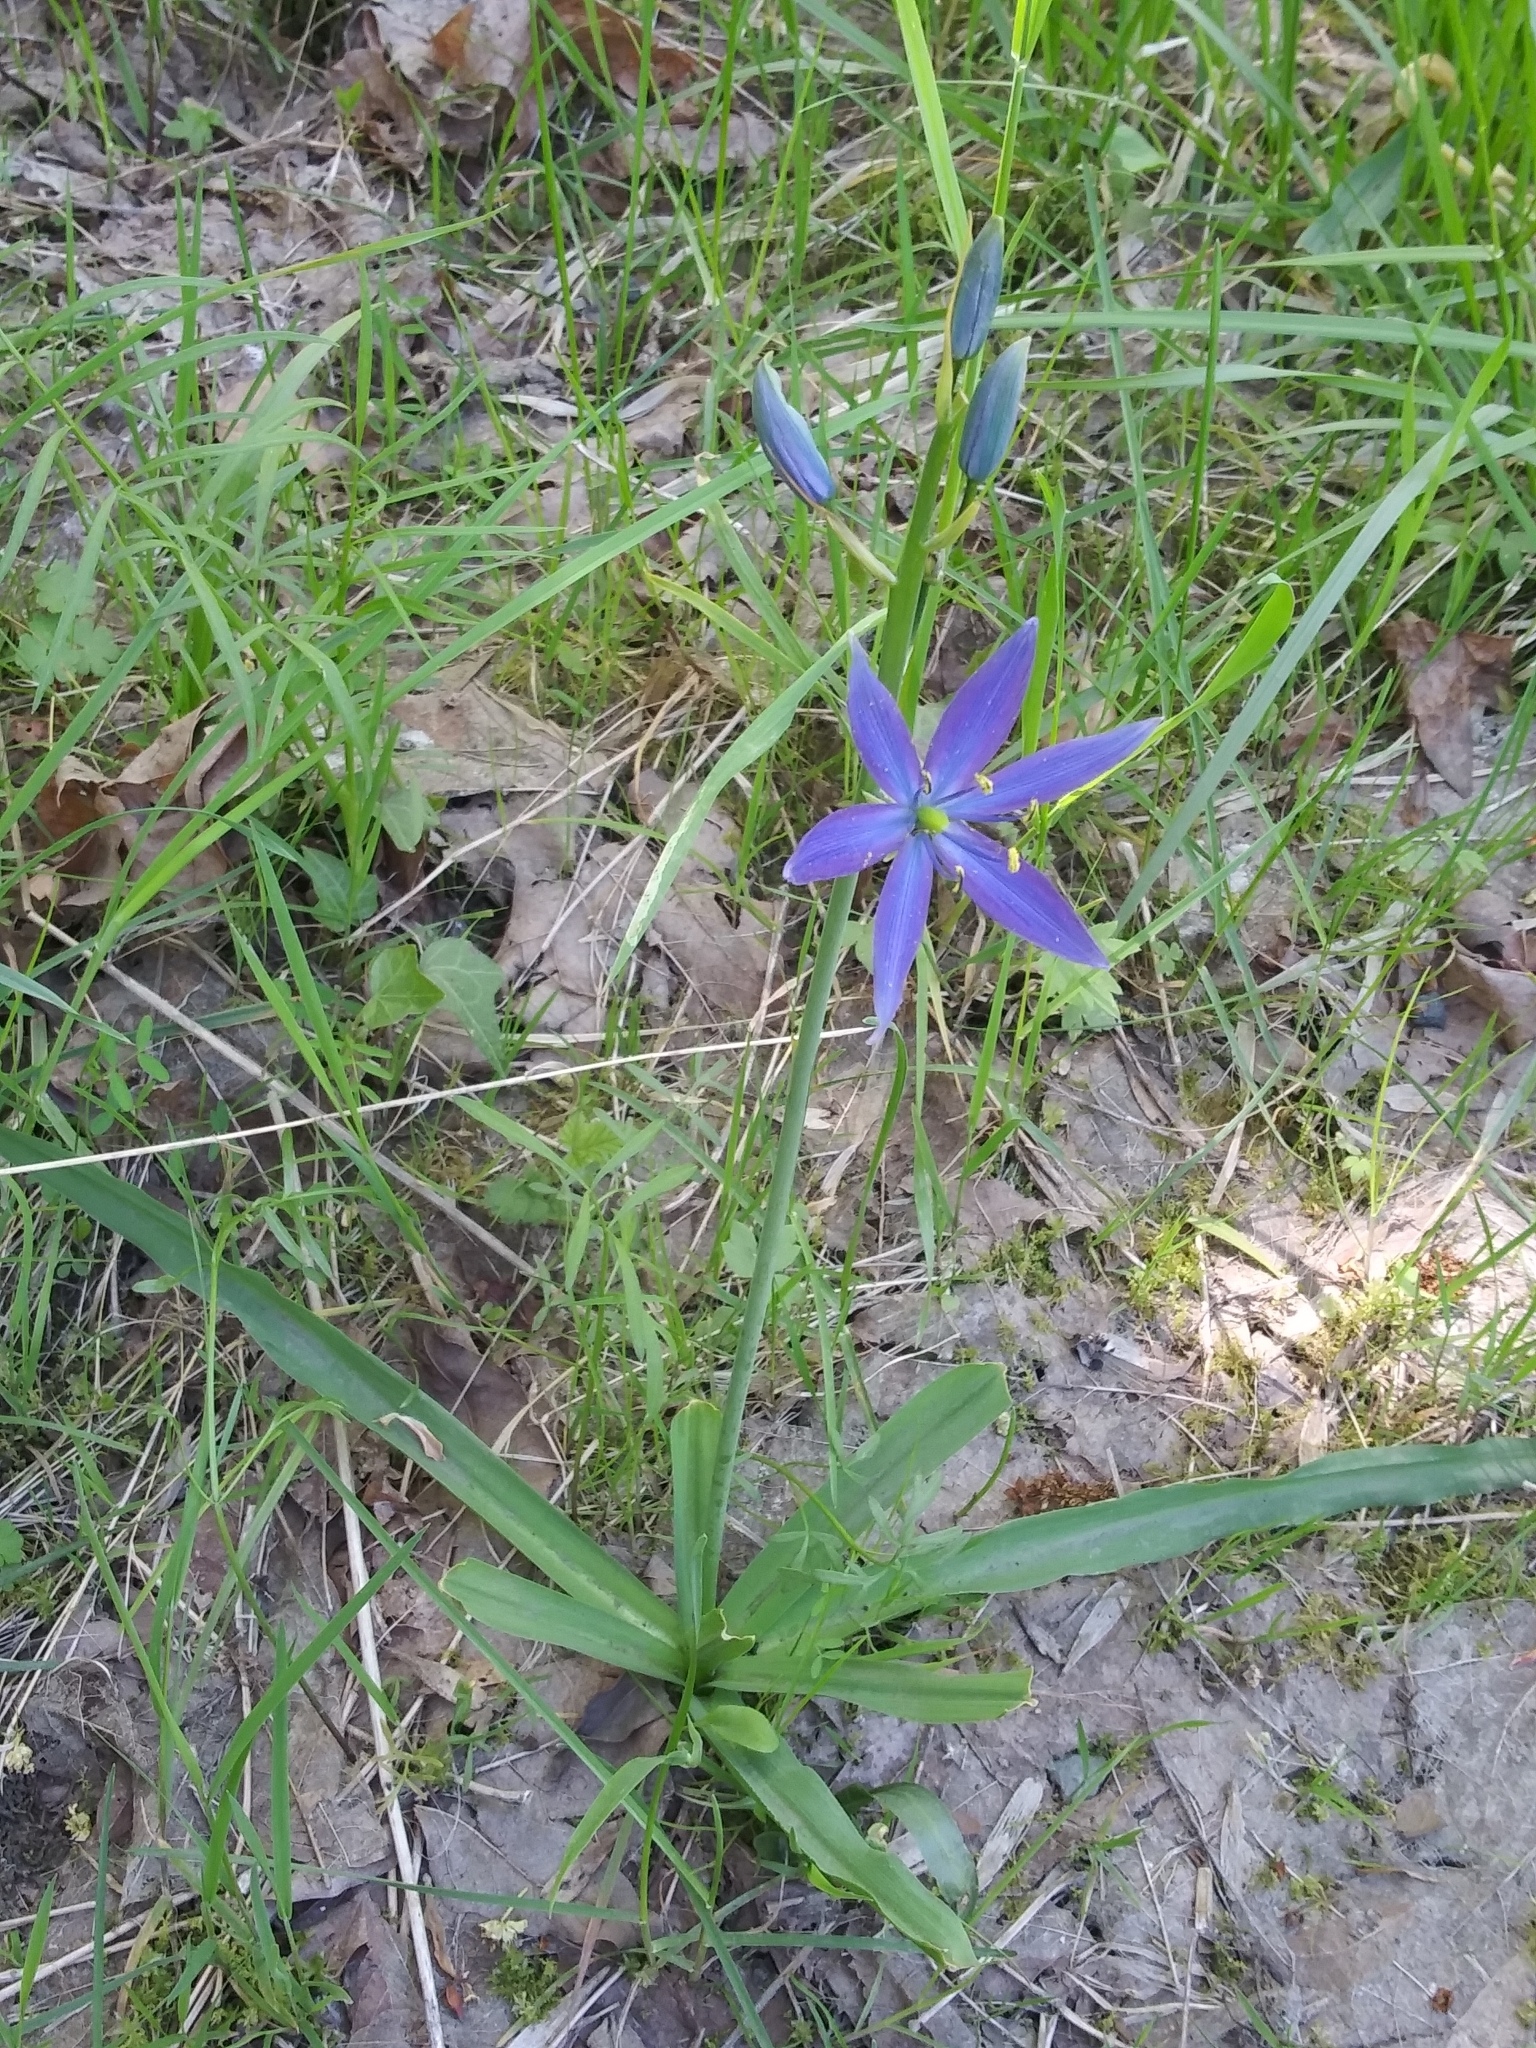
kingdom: Plantae
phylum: Tracheophyta
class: Liliopsida
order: Asparagales
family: Asparagaceae
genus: Camassia
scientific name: Camassia leichtlinii
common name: Leichtlin's camas
